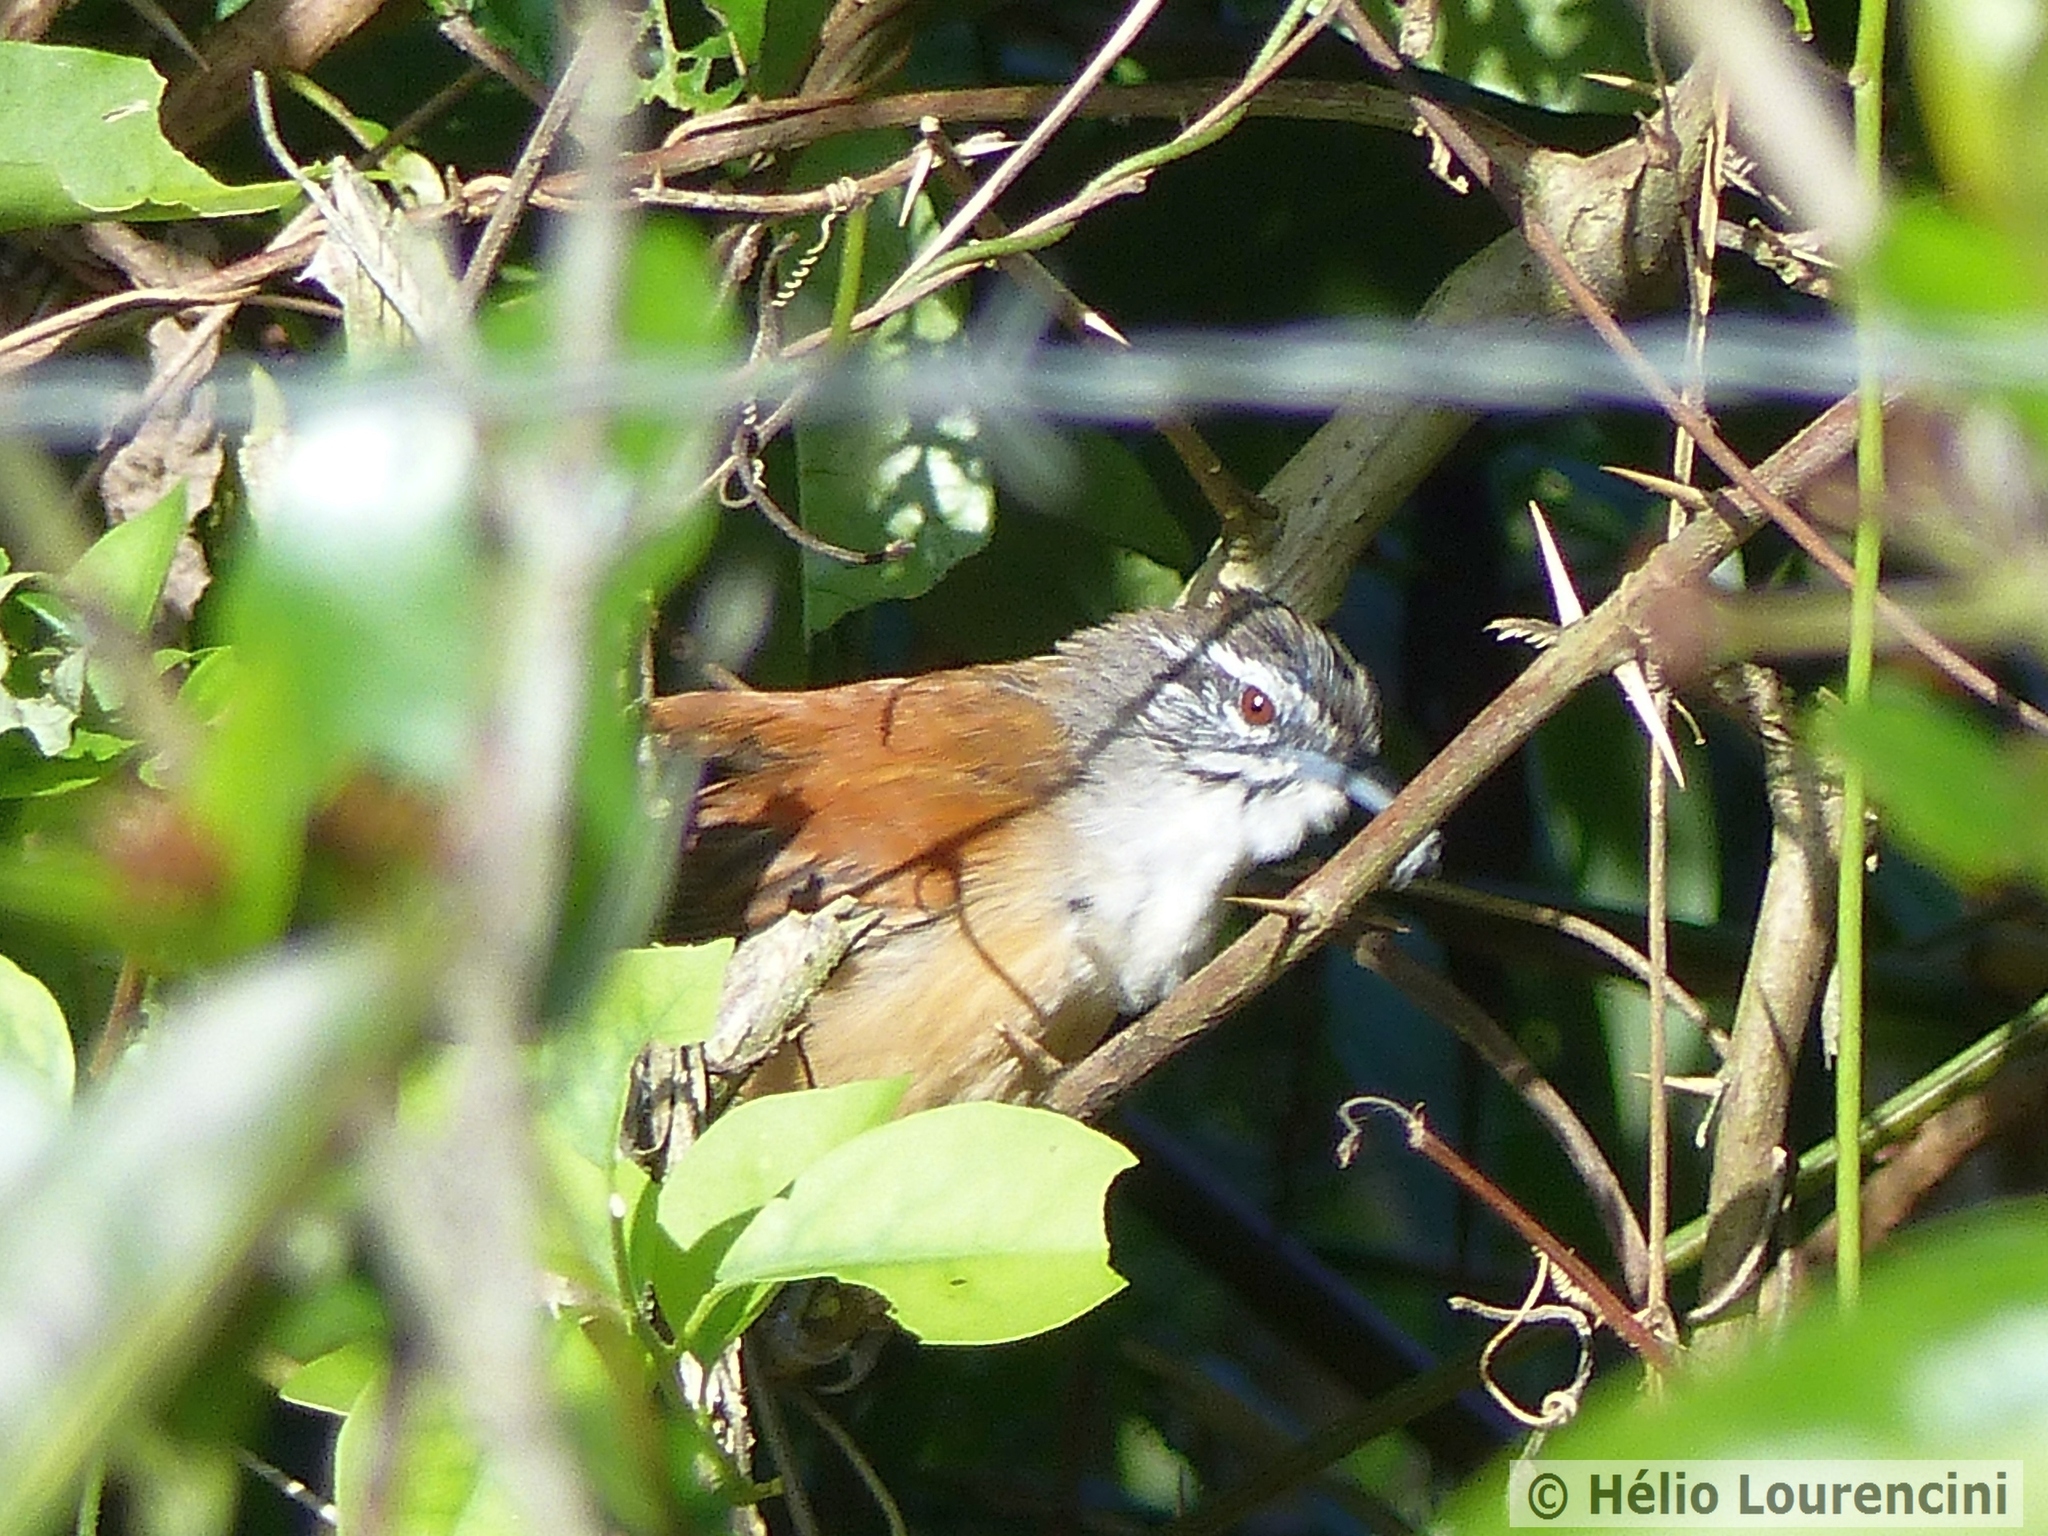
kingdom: Animalia
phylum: Chordata
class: Aves
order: Passeriformes
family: Troglodytidae
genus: Pheugopedius
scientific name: Pheugopedius genibarbis
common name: Moustached wren
